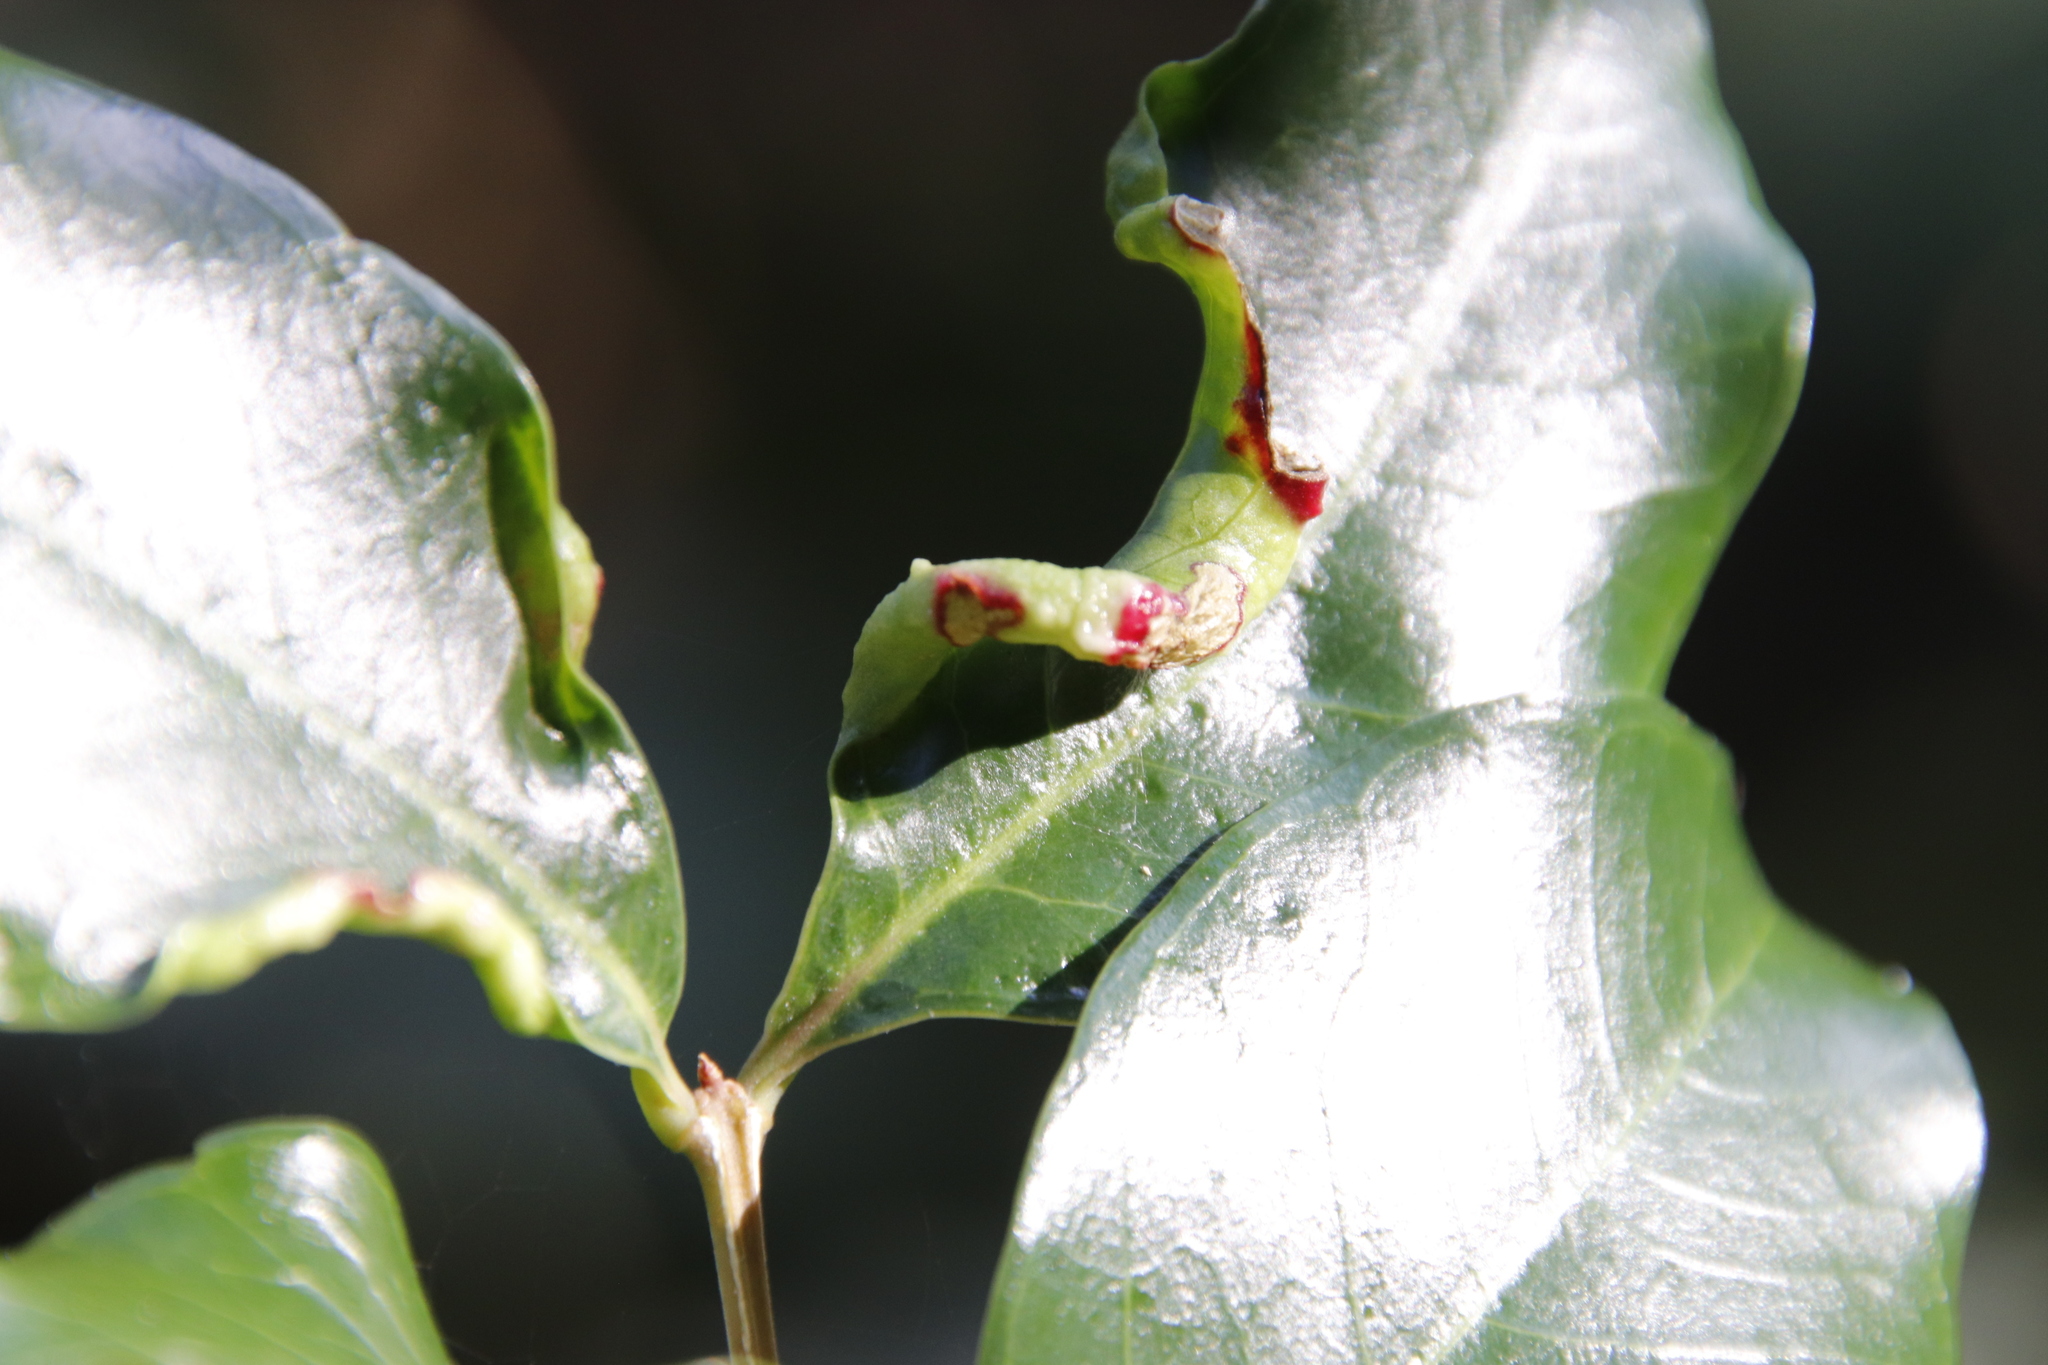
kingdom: Plantae
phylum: Tracheophyta
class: Magnoliopsida
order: Myrtales
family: Penaeaceae
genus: Olinia
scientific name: Olinia ventosa
